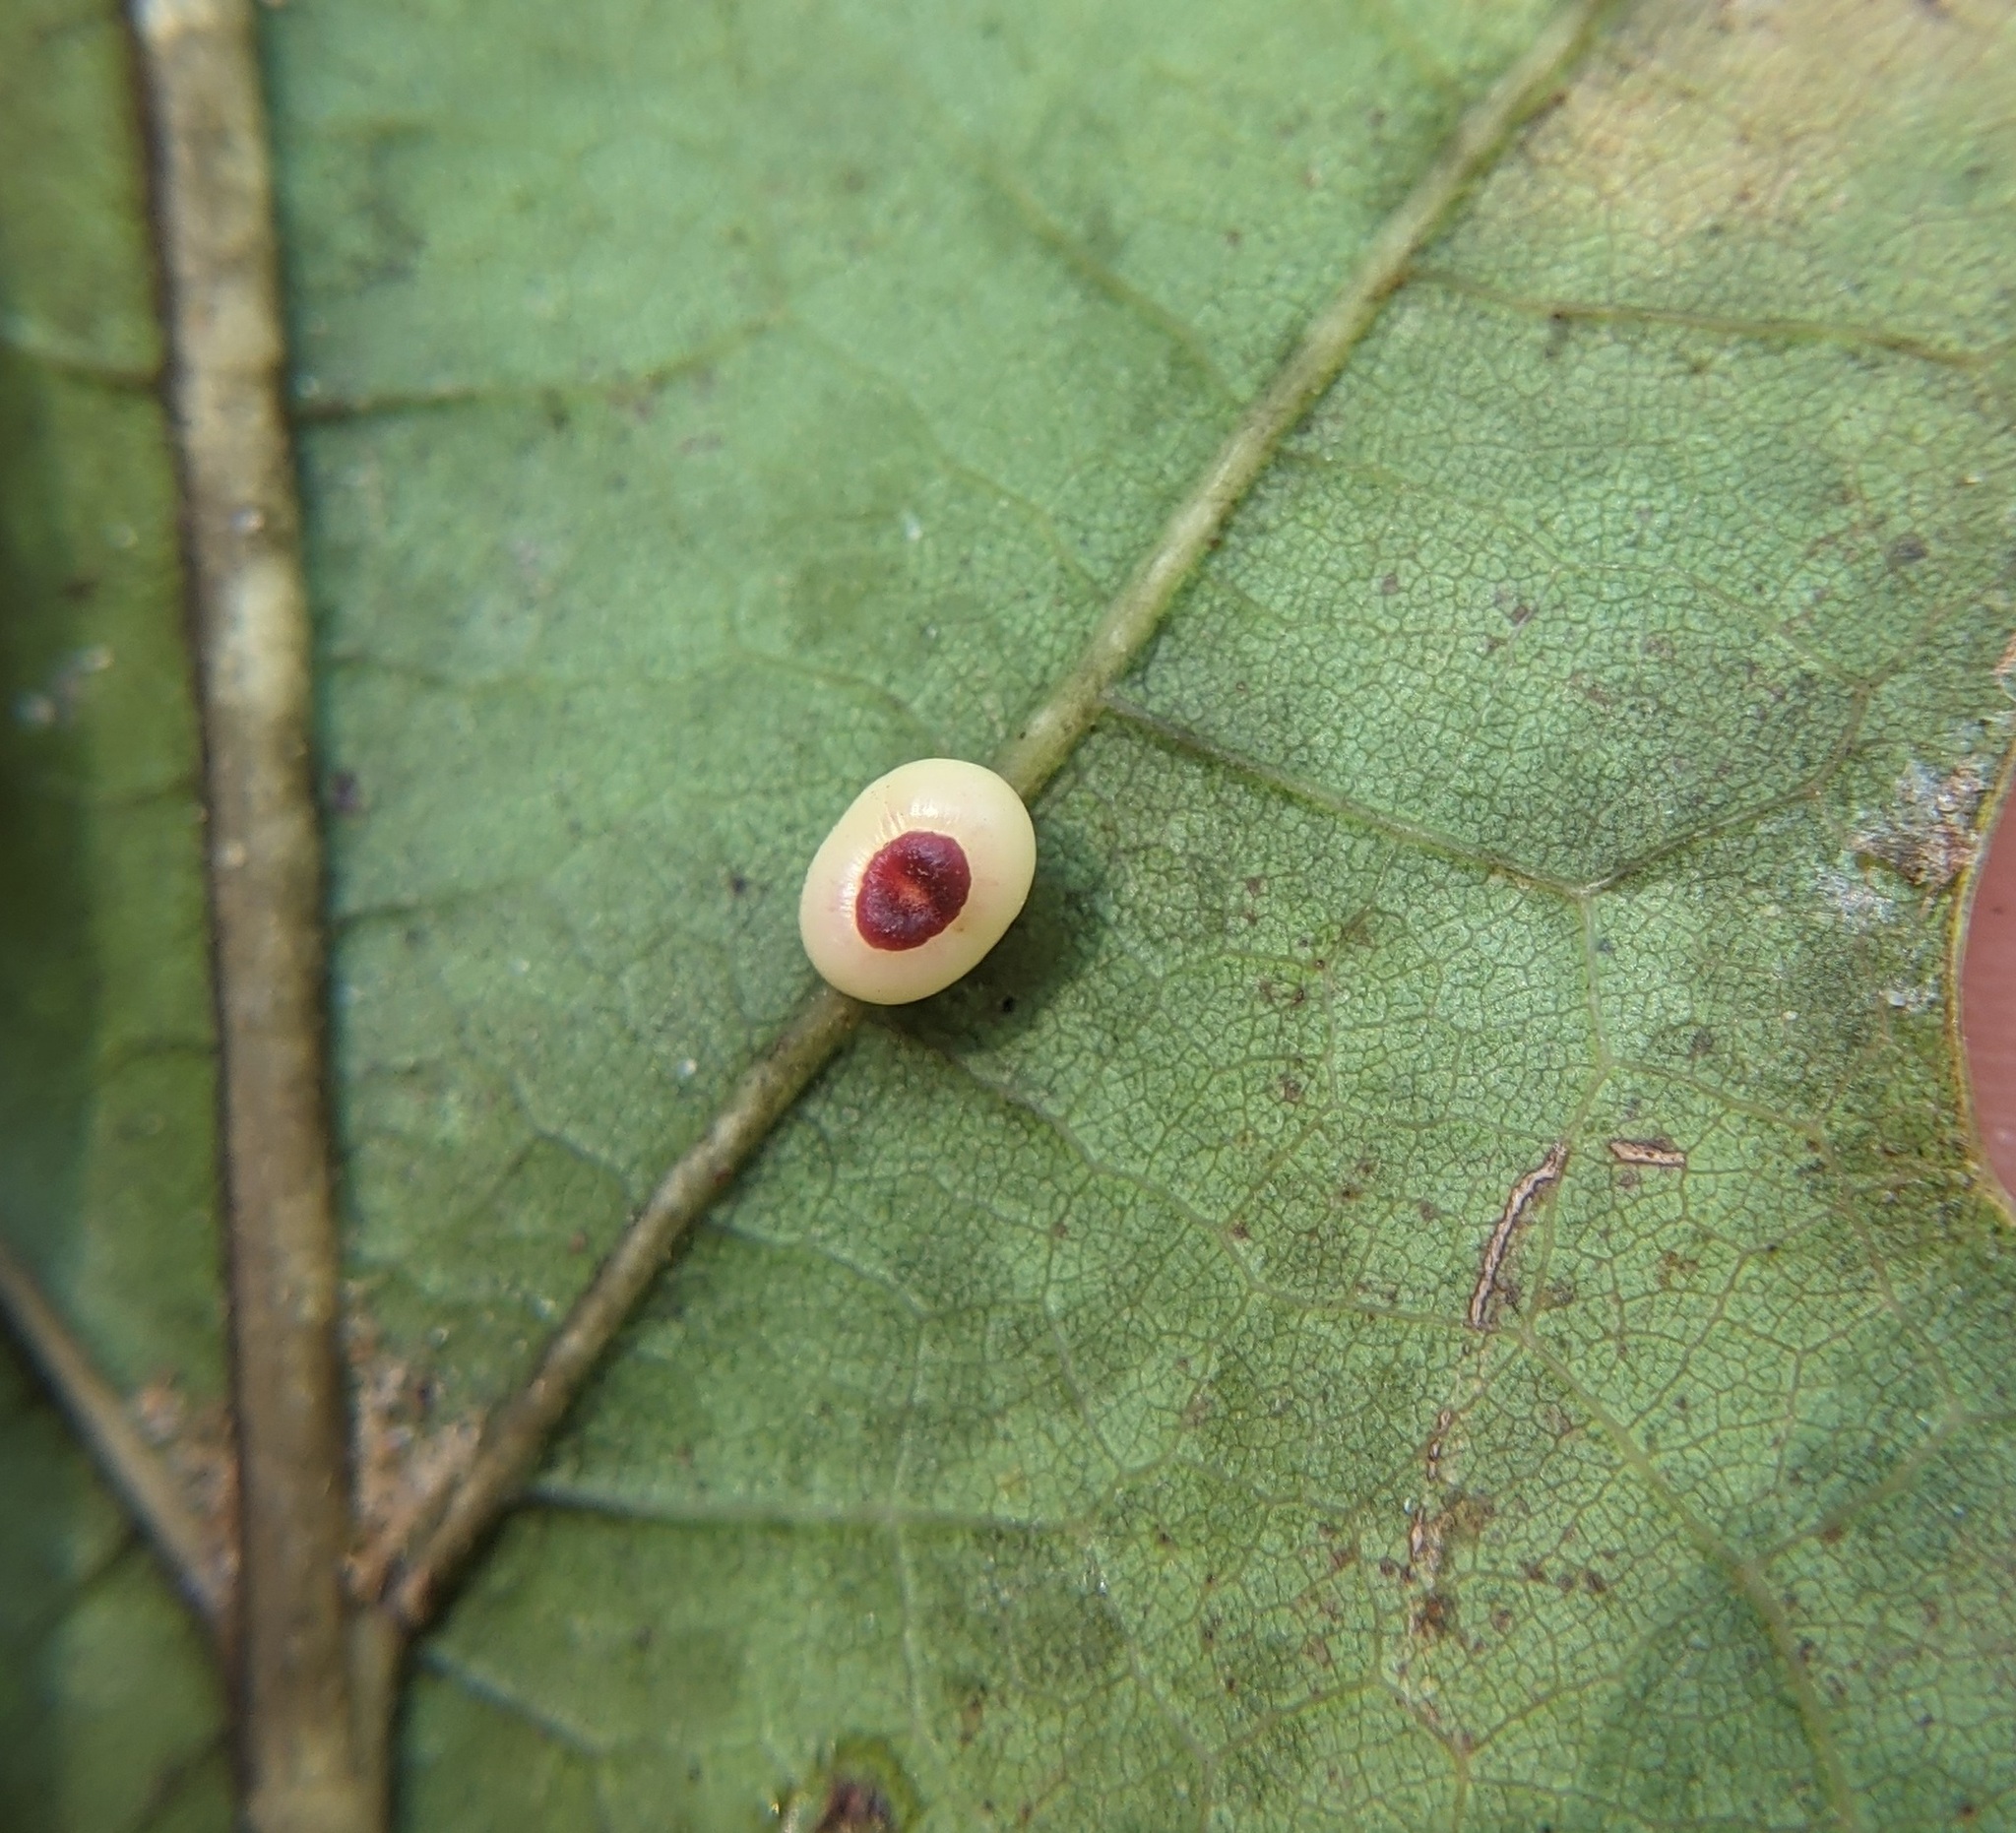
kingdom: Animalia
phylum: Arthropoda
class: Insecta
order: Hymenoptera
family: Cynipidae
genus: Kokkocynips
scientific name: Kokkocynips rileyi
